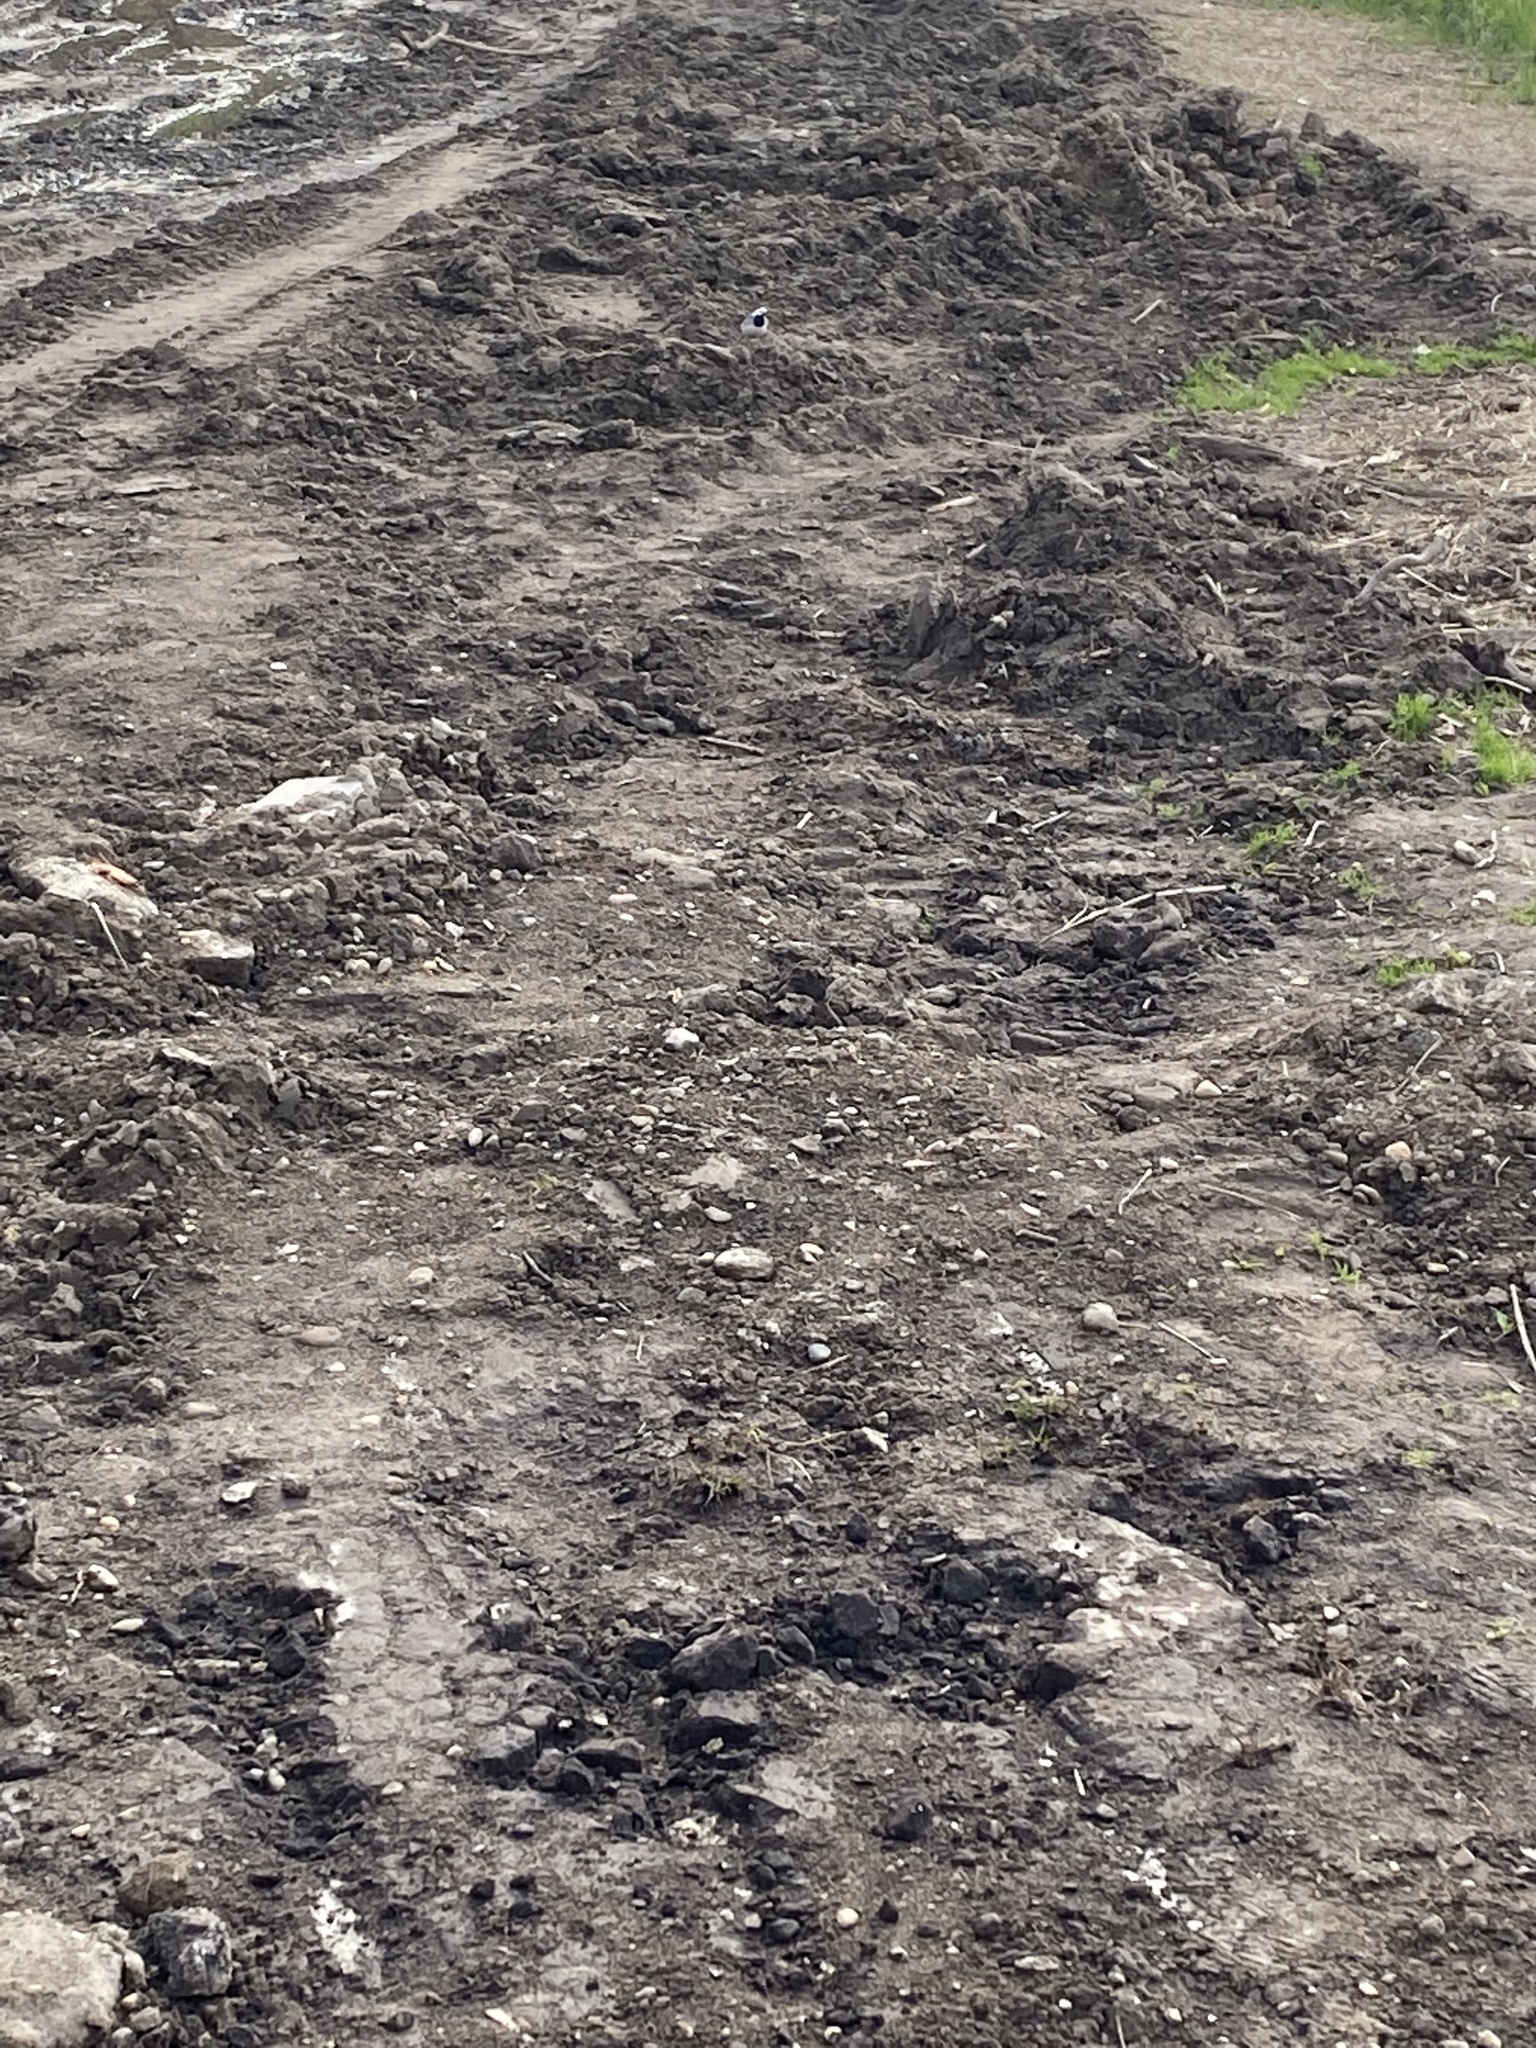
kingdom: Animalia
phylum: Chordata
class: Aves
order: Passeriformes
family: Motacillidae
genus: Motacilla
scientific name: Motacilla alba
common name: White wagtail
